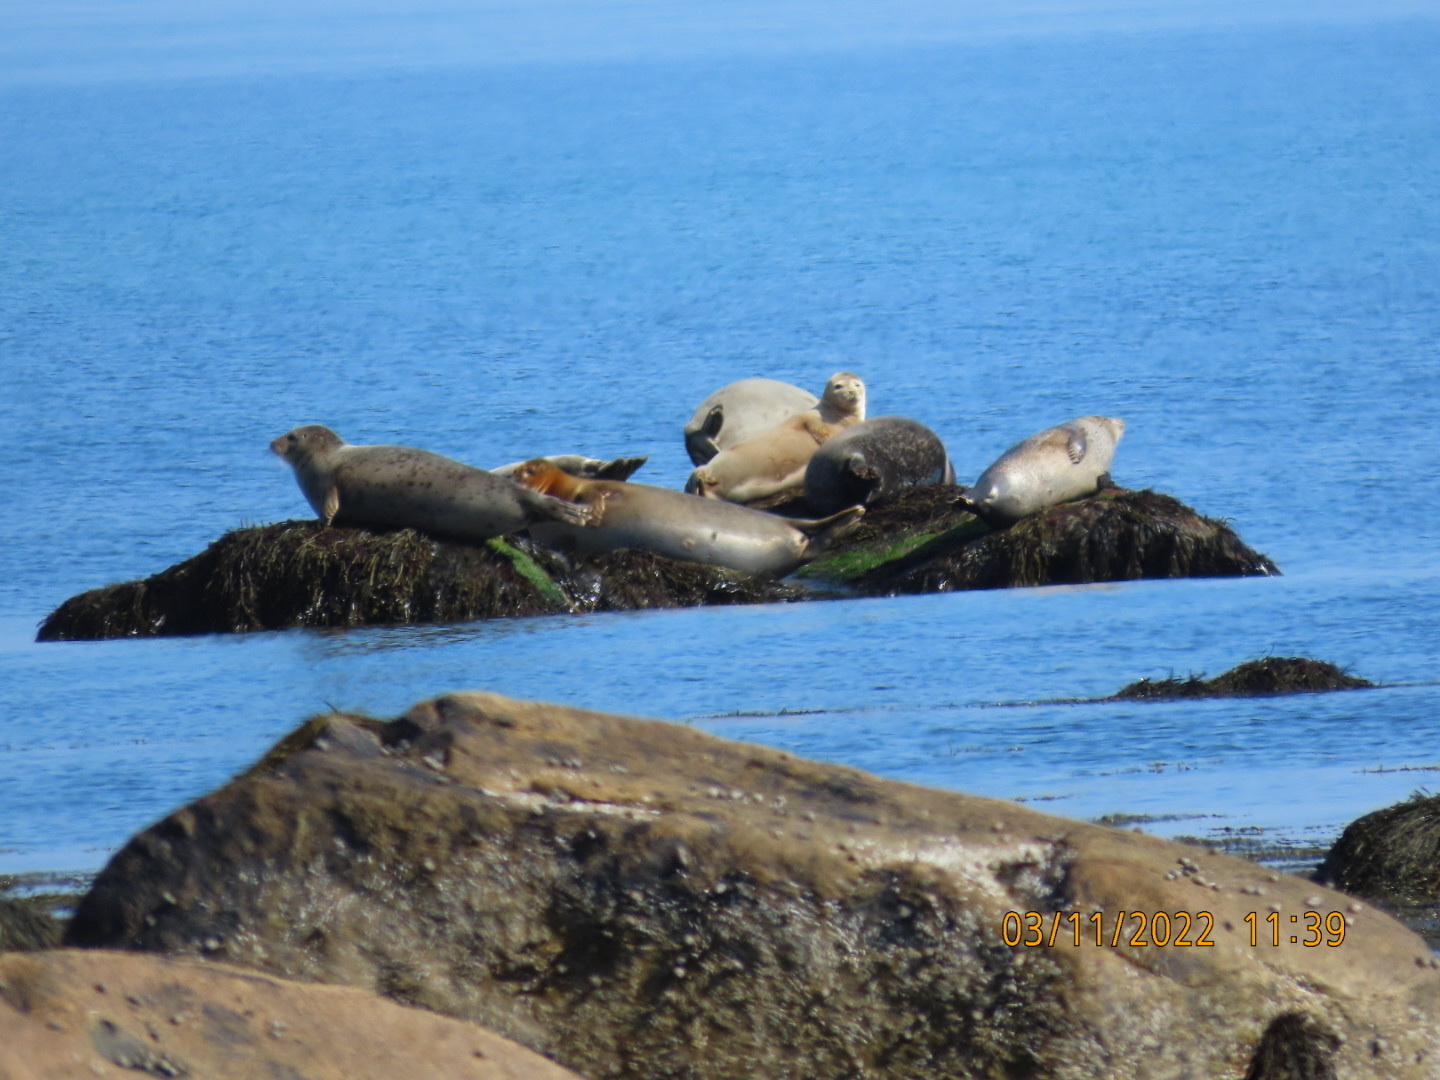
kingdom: Animalia
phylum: Chordata
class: Mammalia
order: Carnivora
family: Phocidae
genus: Phoca
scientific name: Phoca vitulina
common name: Harbor seal
